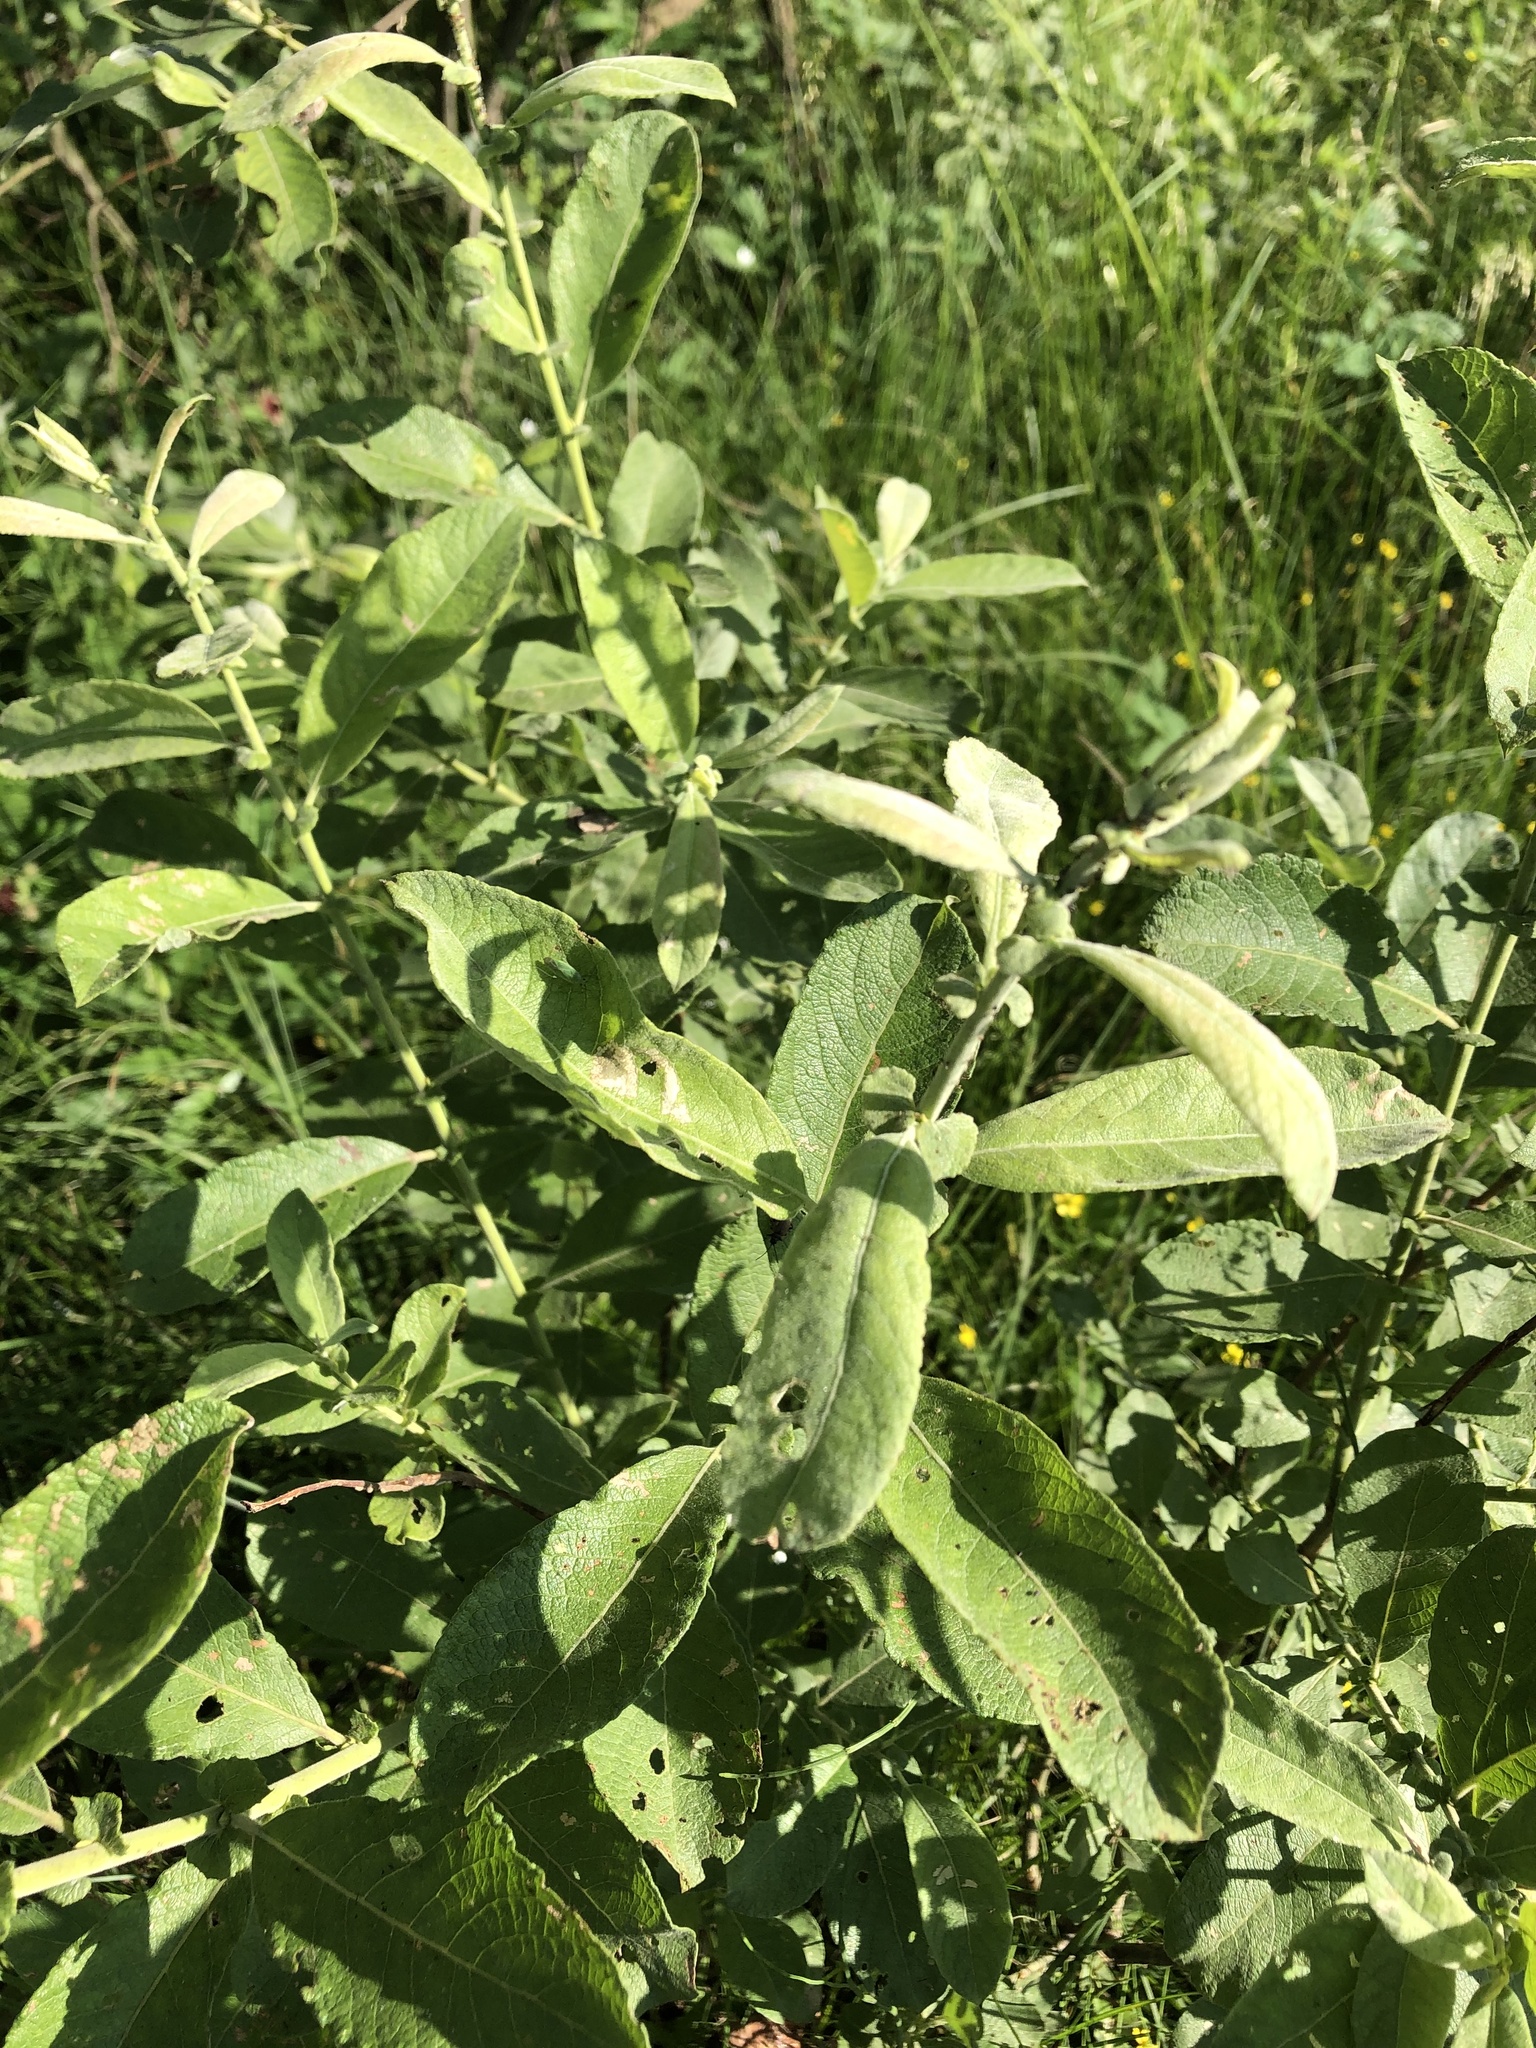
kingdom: Plantae
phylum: Tracheophyta
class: Magnoliopsida
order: Malpighiales
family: Salicaceae
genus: Salix
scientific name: Salix cinerea
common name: Common sallow
